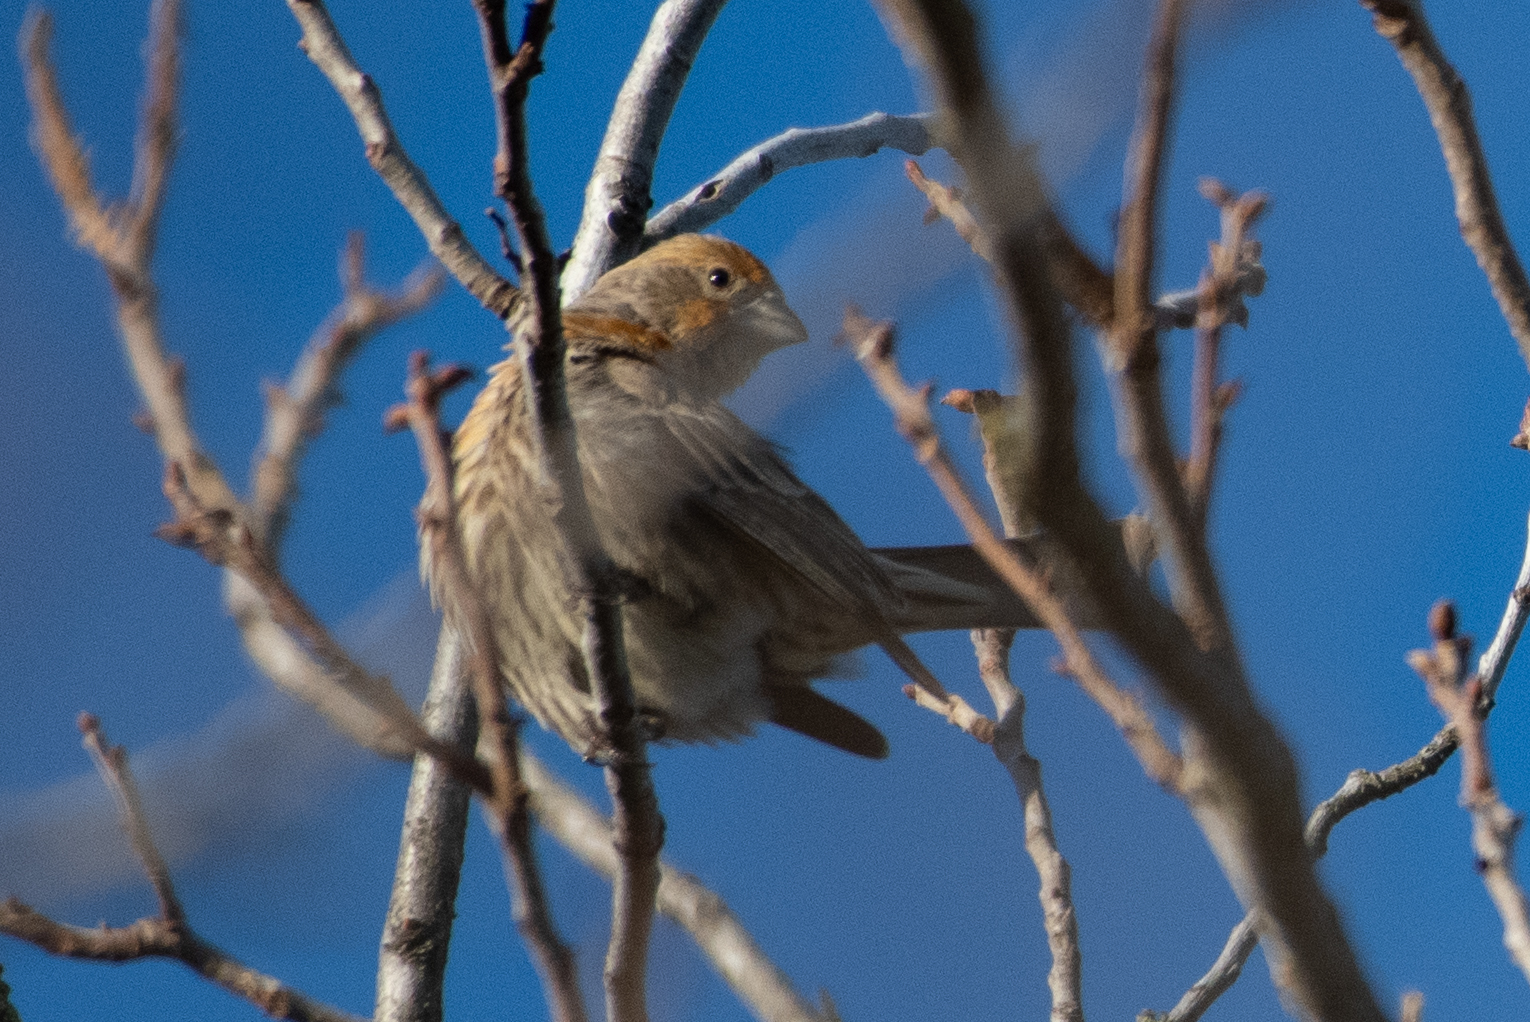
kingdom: Animalia
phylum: Chordata
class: Aves
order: Passeriformes
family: Fringillidae
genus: Haemorhous
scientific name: Haemorhous mexicanus
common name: House finch
